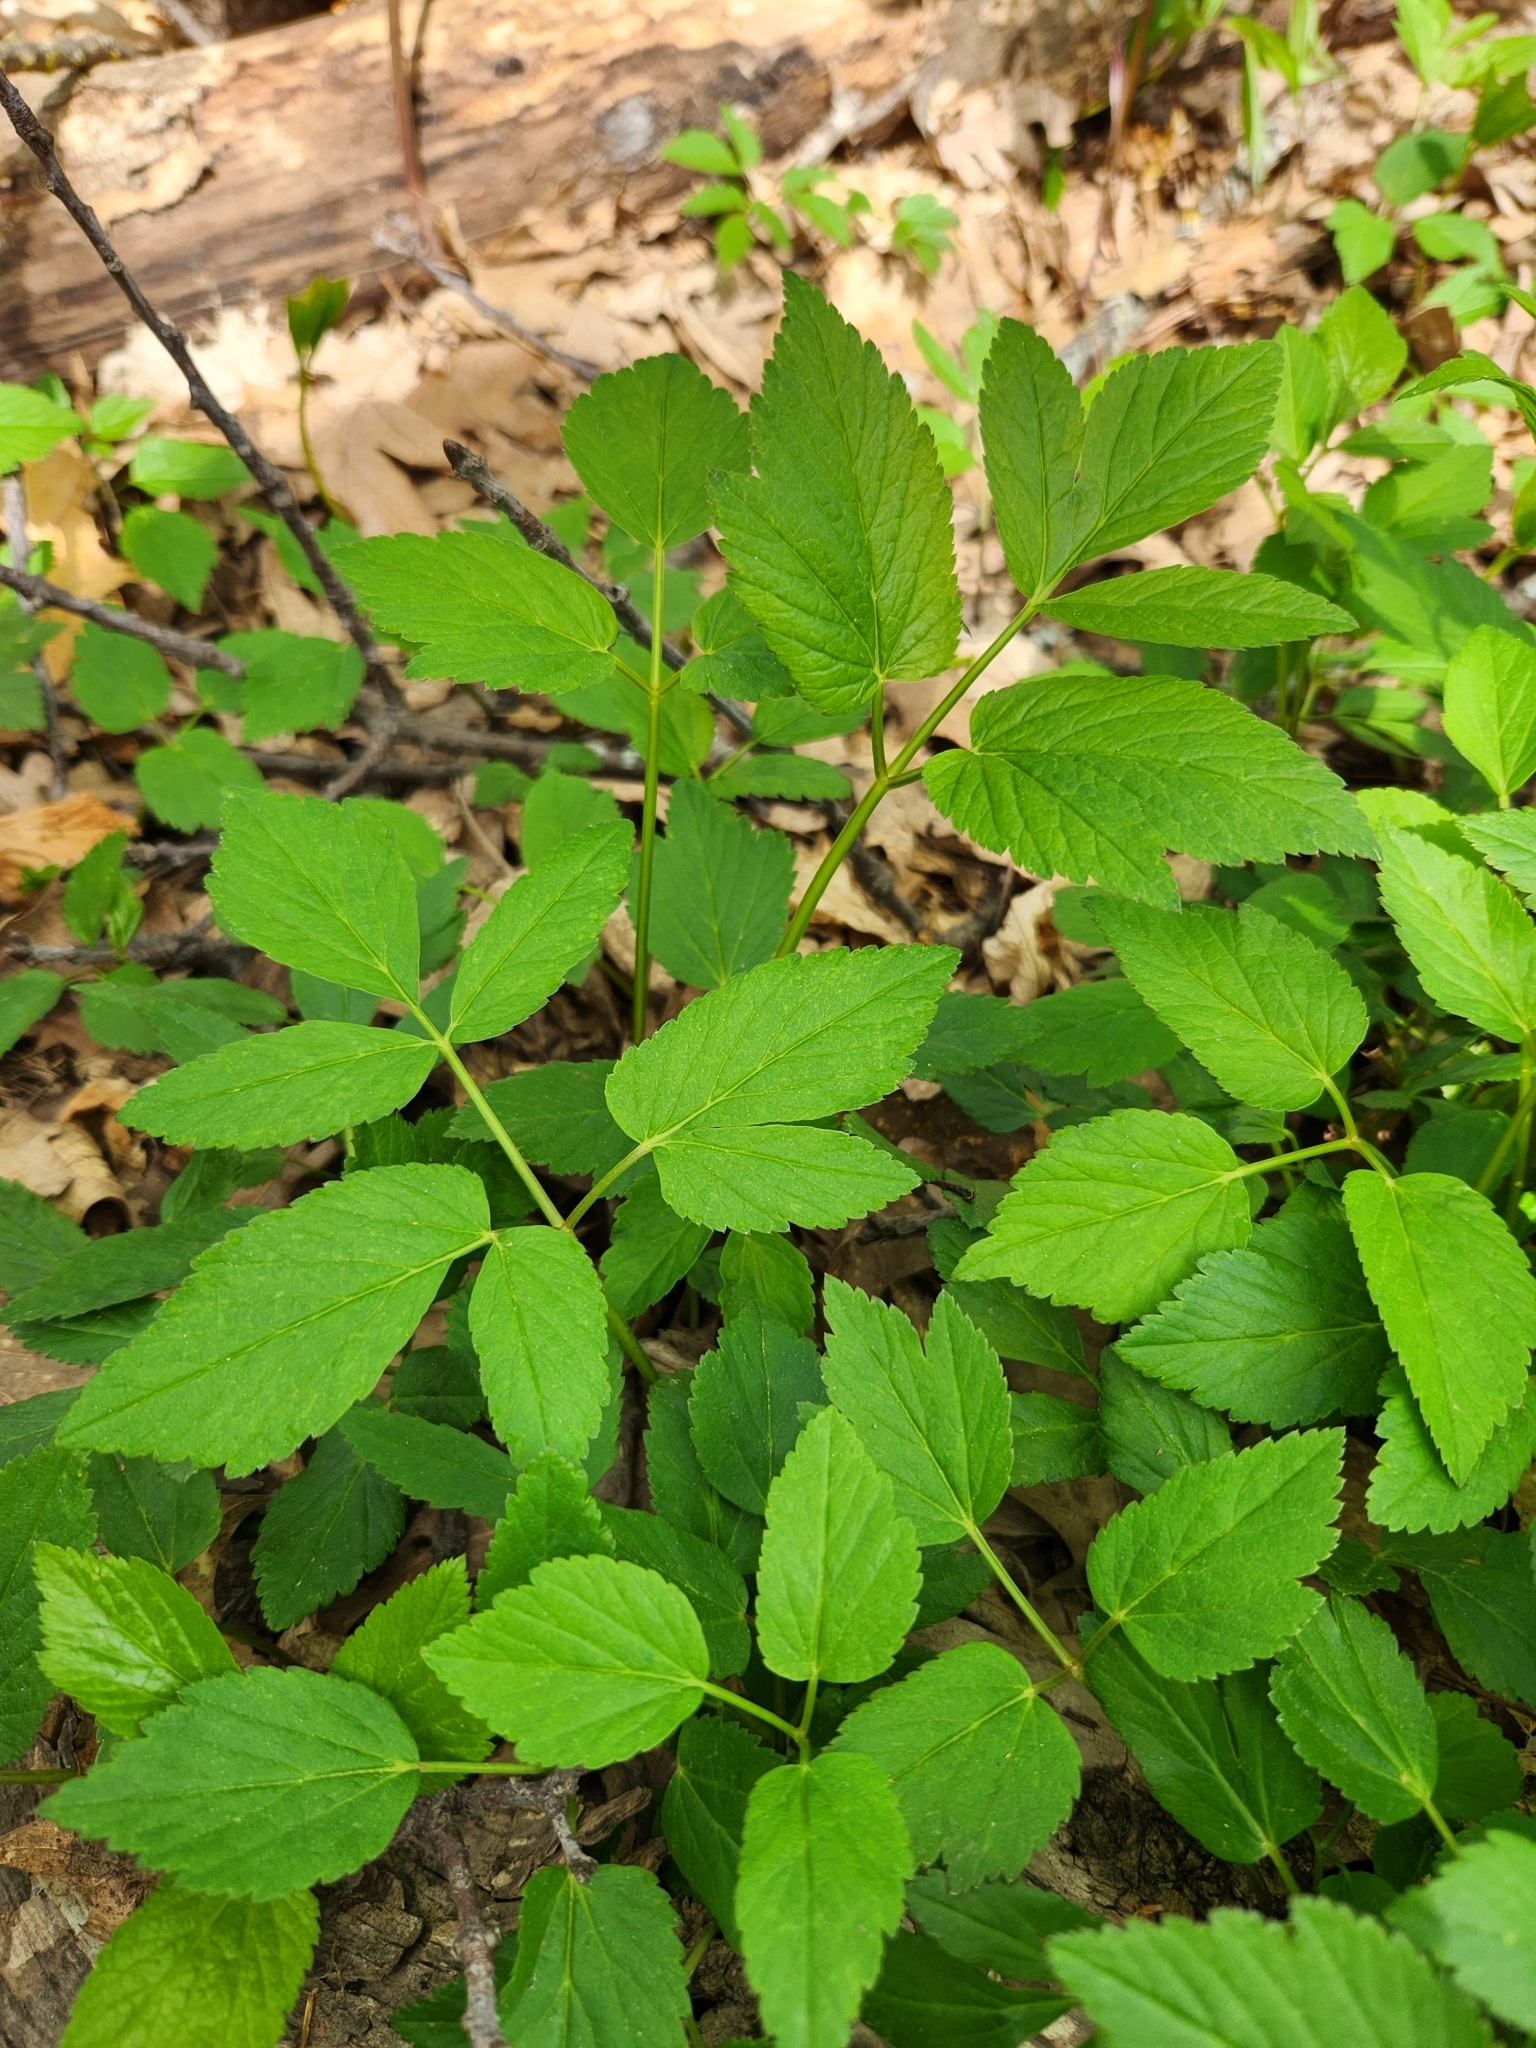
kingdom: Plantae
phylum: Tracheophyta
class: Magnoliopsida
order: Apiales
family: Apiaceae
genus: Aegopodium
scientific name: Aegopodium podagraria
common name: Ground-elder
